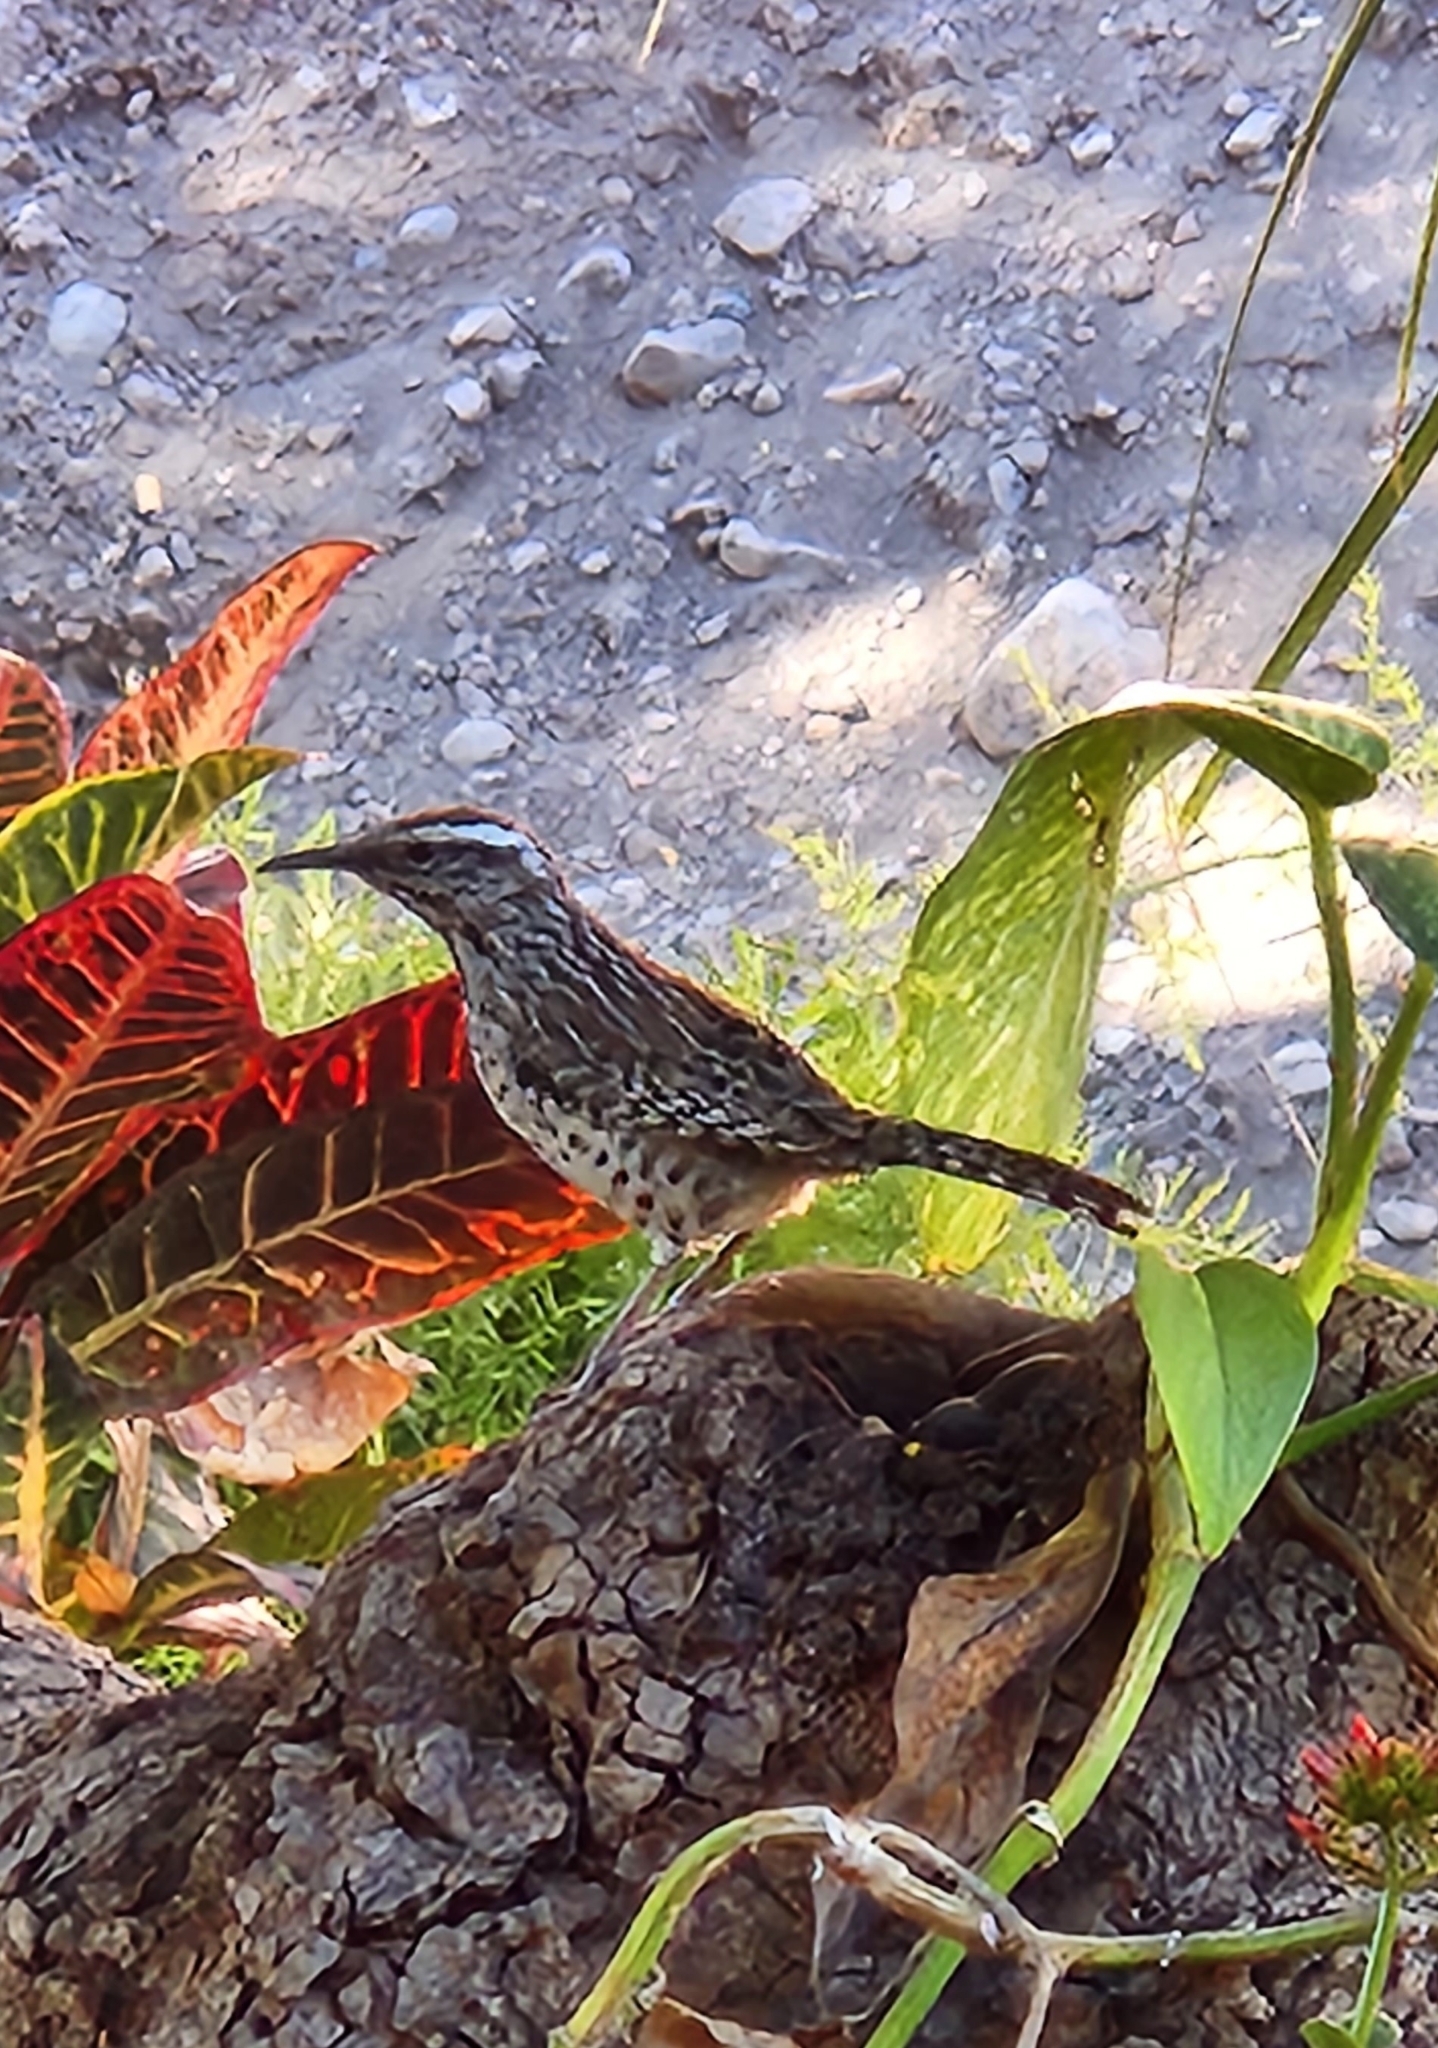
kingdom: Animalia
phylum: Chordata
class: Aves
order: Passeriformes
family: Troglodytidae
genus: Campylorhynchus
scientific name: Campylorhynchus brunneicapillus
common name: Cactus wren
